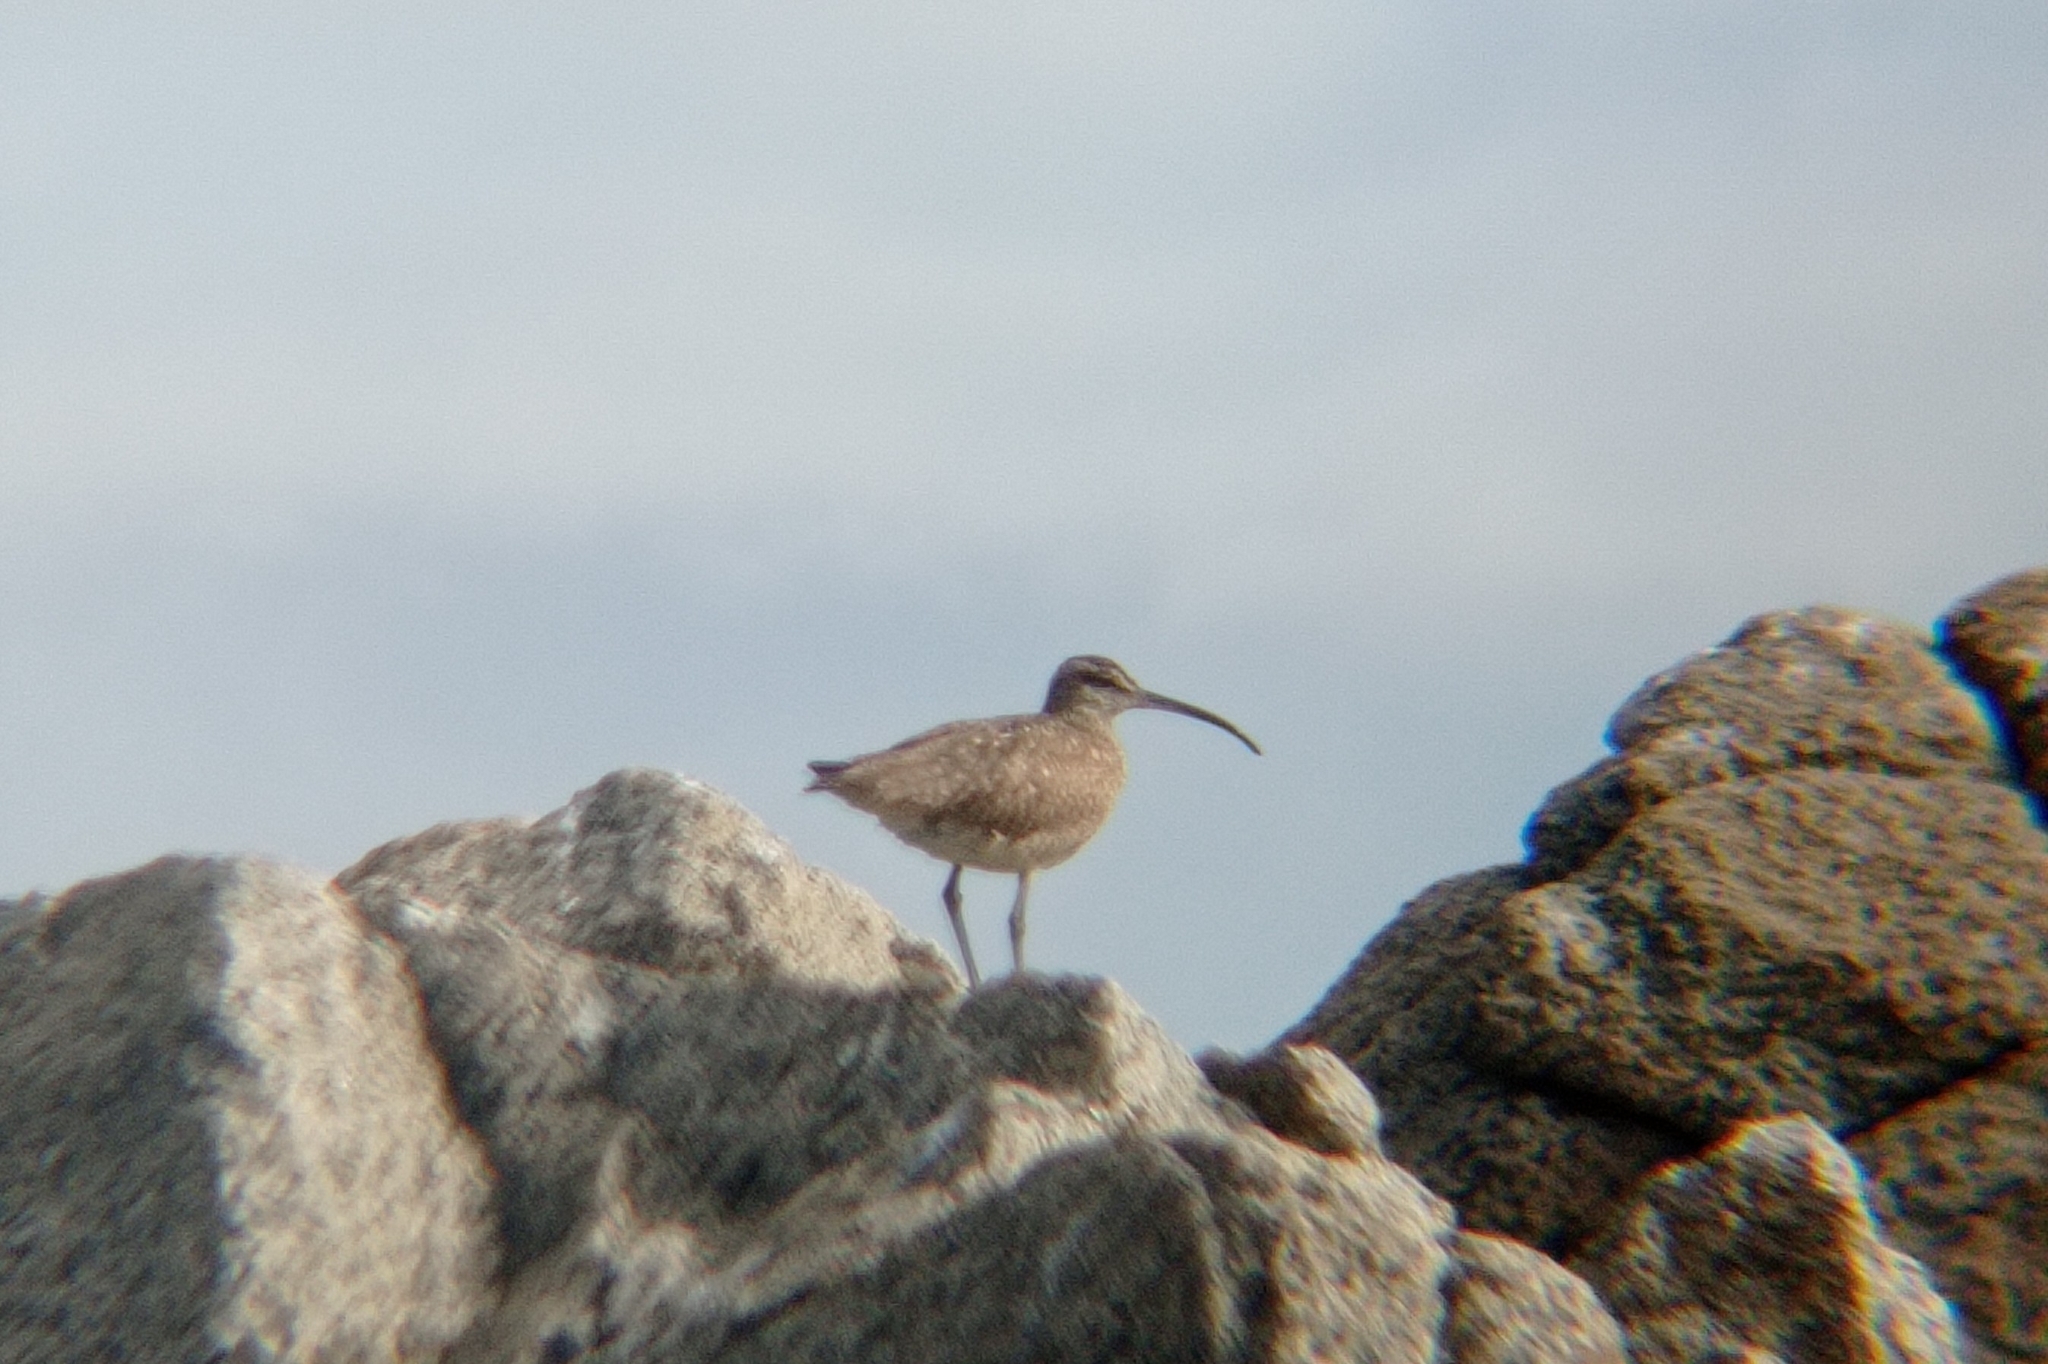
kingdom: Animalia
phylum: Chordata
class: Aves
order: Charadriiformes
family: Scolopacidae
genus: Numenius
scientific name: Numenius phaeopus
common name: Whimbrel
